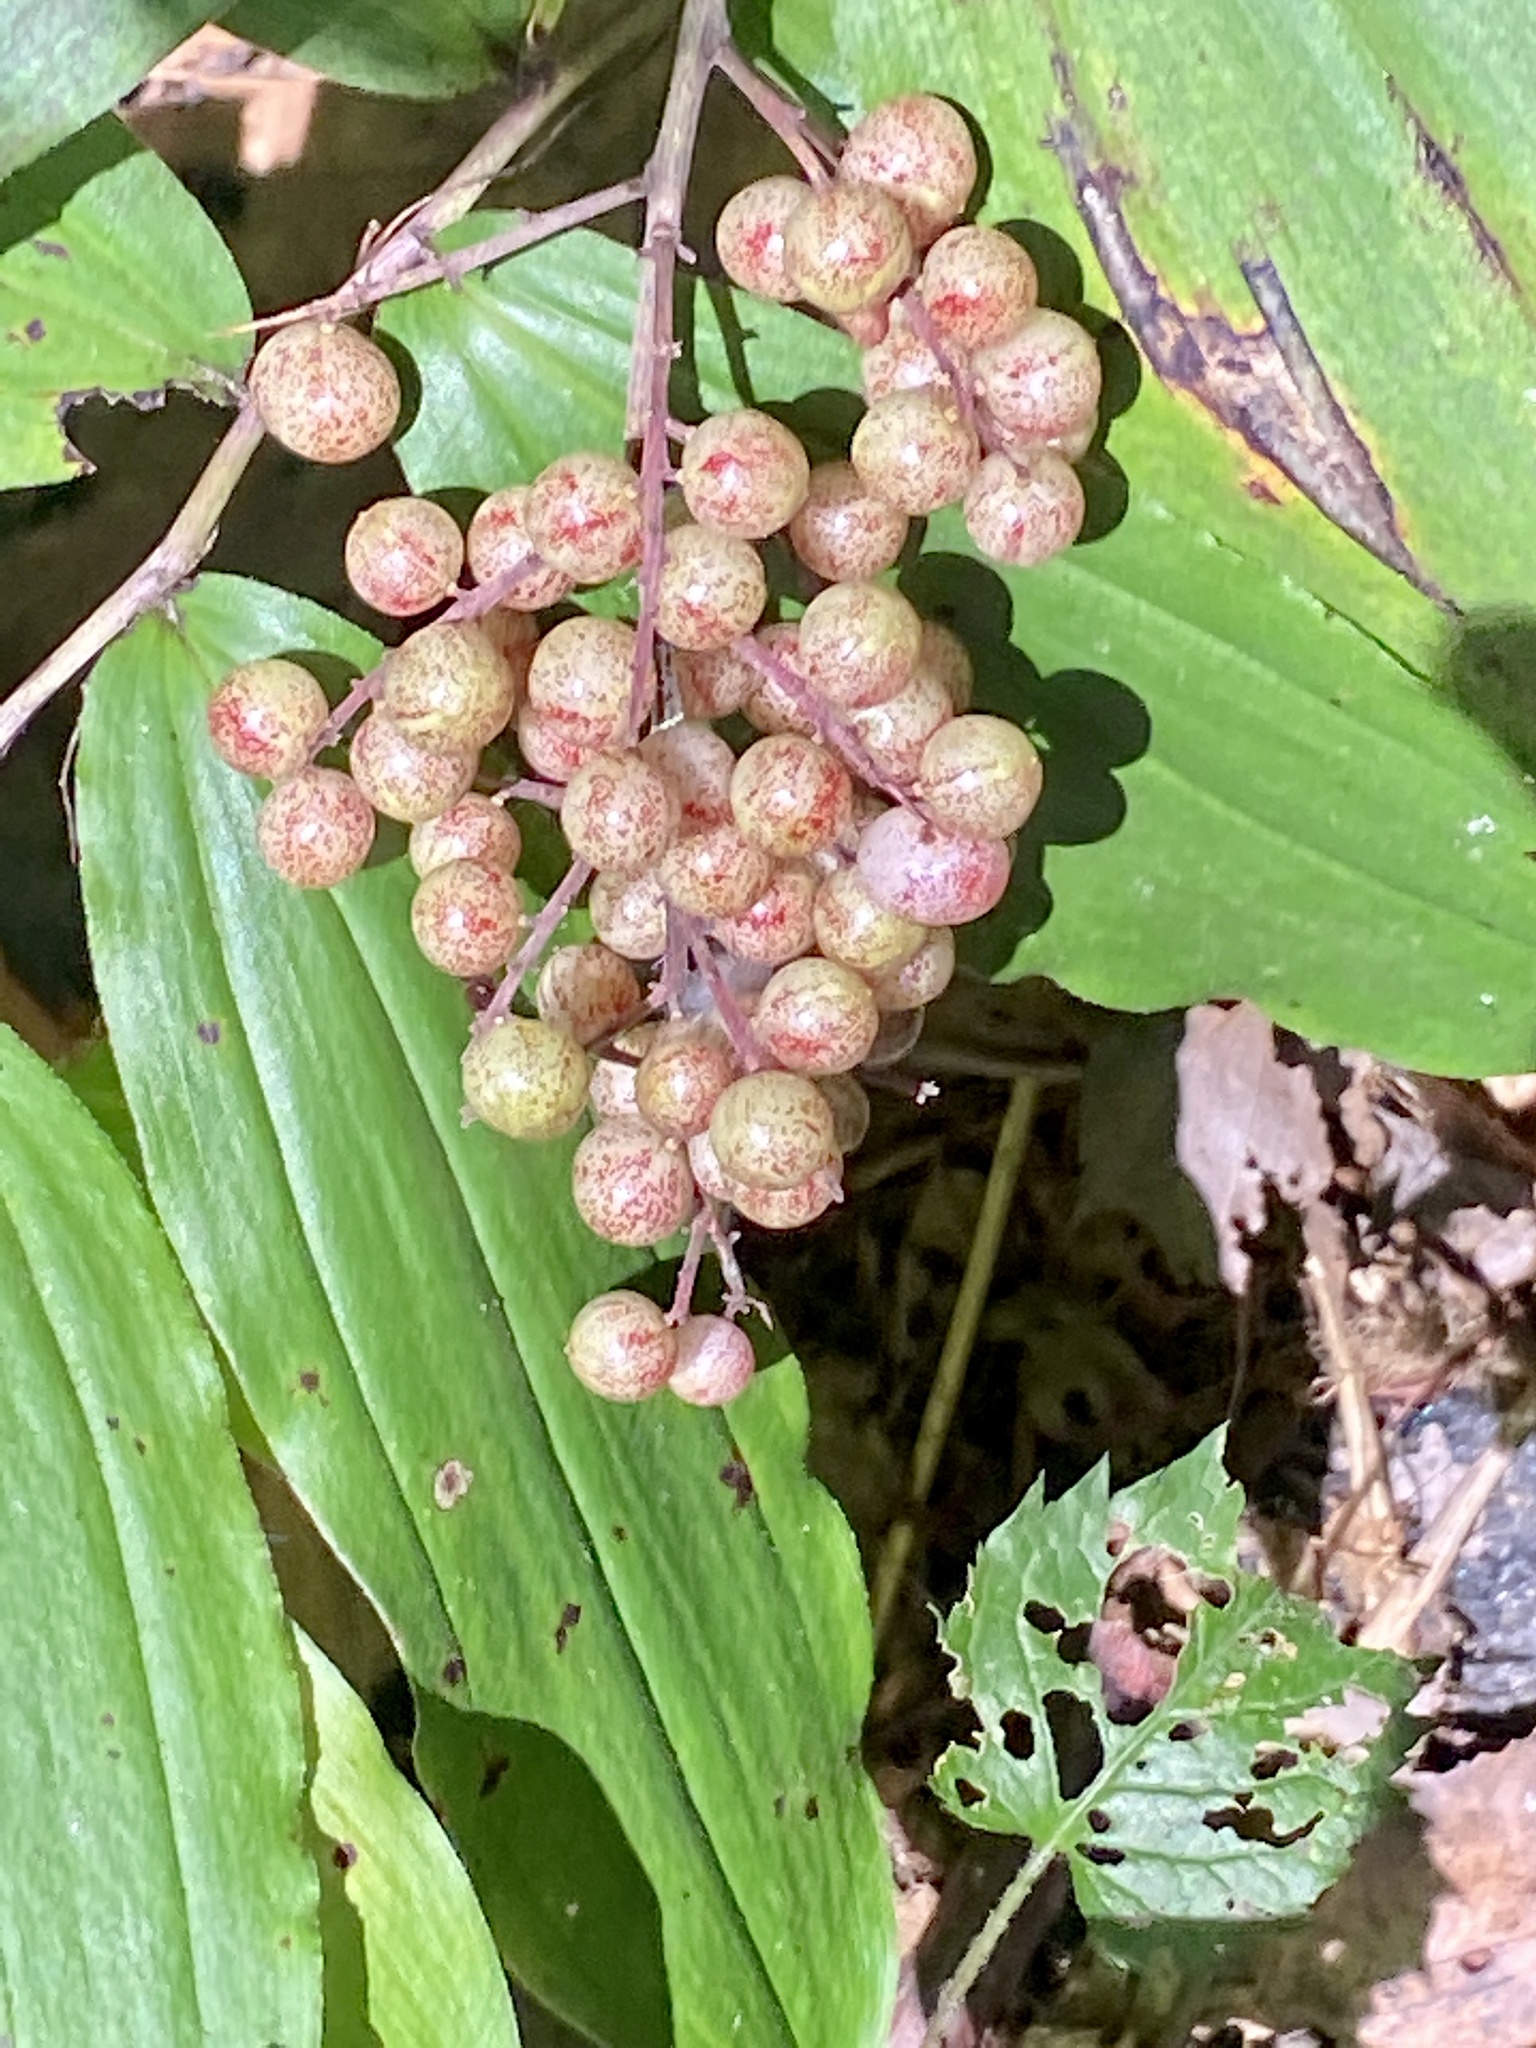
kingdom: Plantae
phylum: Tracheophyta
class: Liliopsida
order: Asparagales
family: Asparagaceae
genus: Maianthemum
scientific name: Maianthemum racemosum
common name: False spikenard
